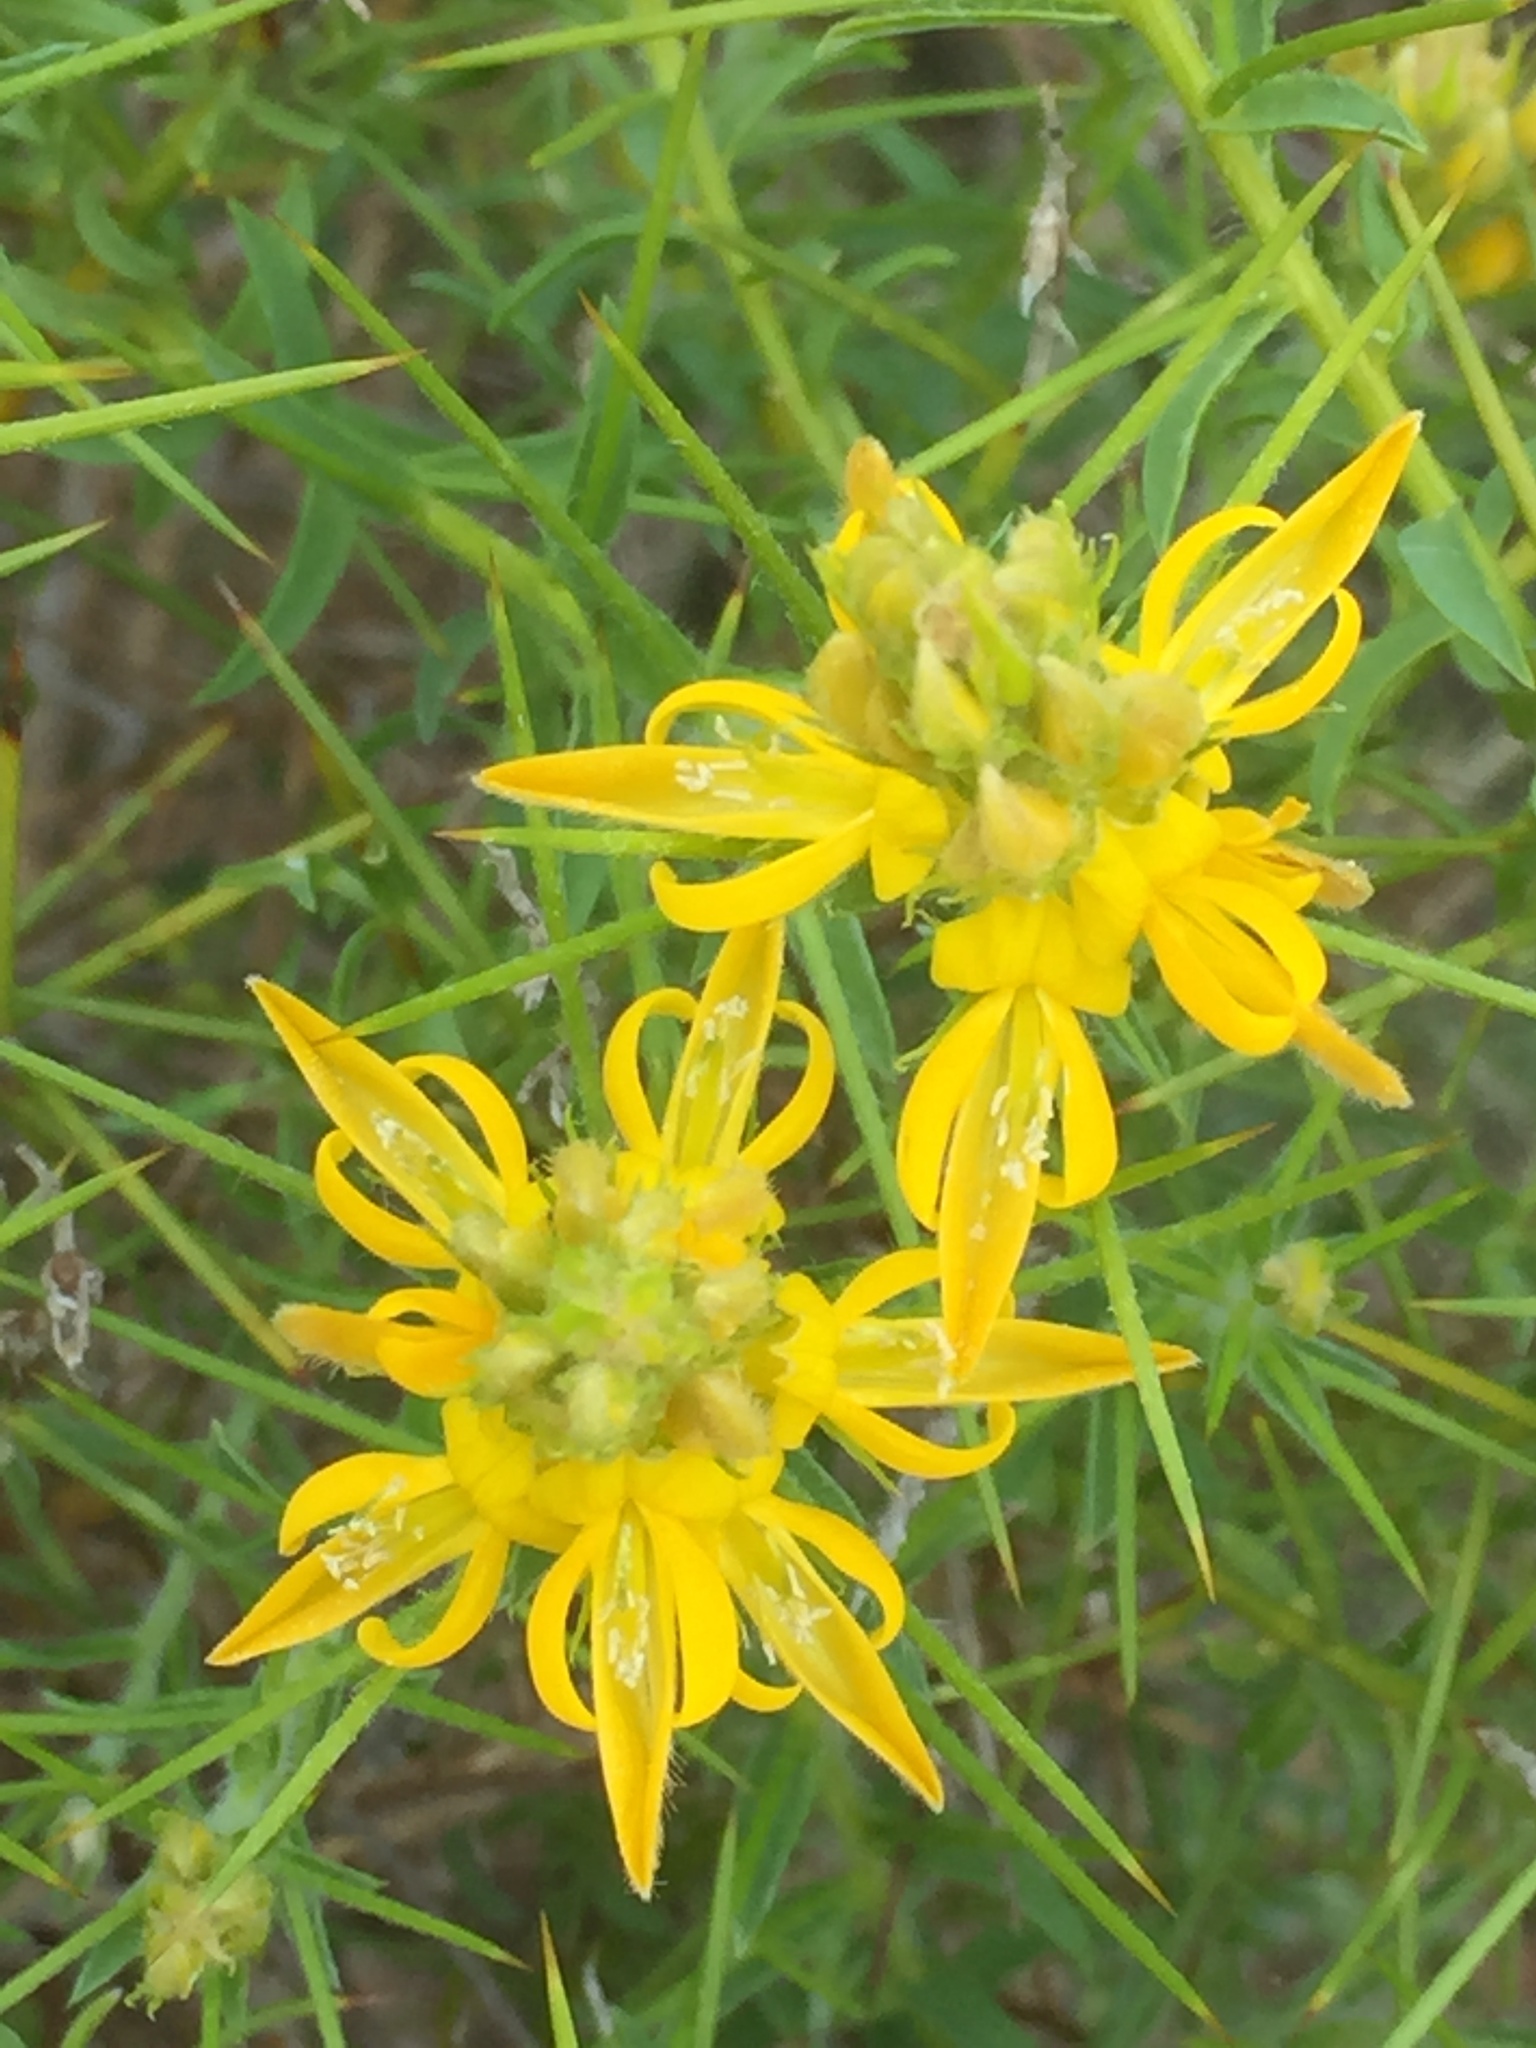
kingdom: Plantae
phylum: Tracheophyta
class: Magnoliopsida
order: Fabales
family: Fabaceae
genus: Genista
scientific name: Genista hirsuta
